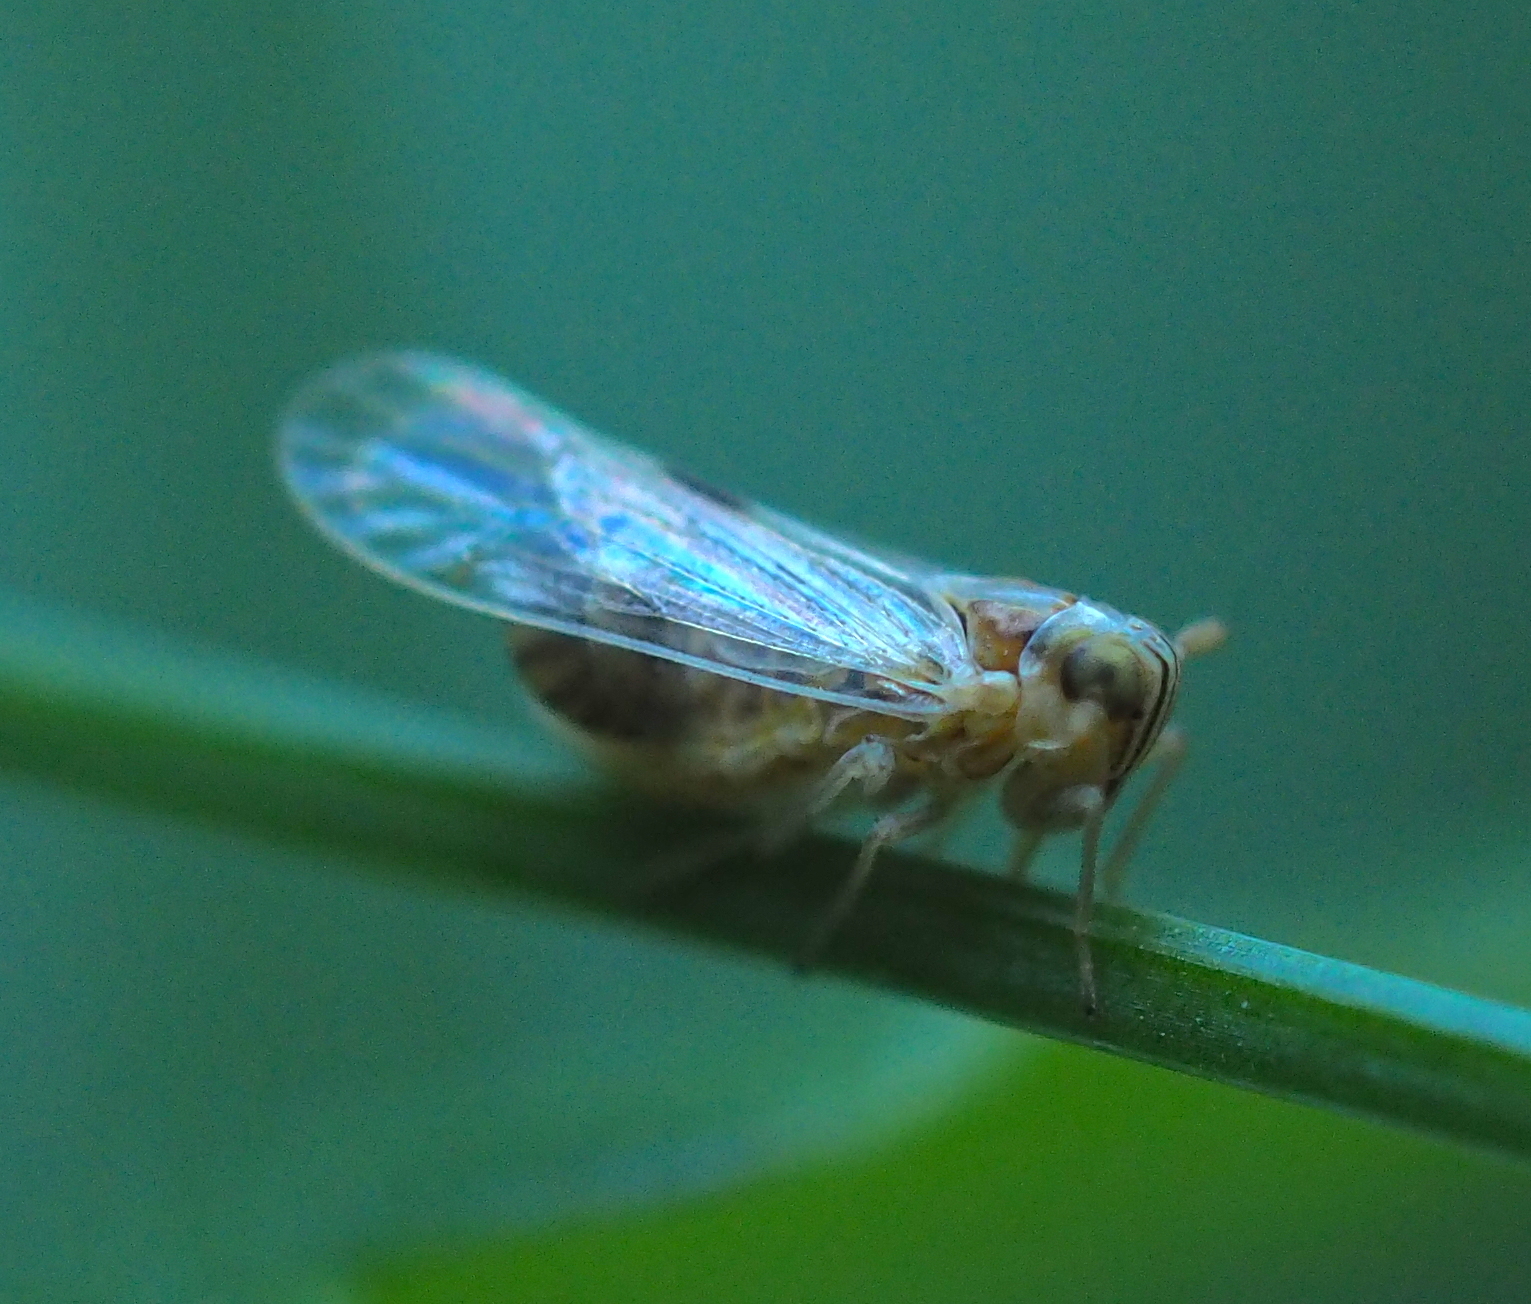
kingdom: Animalia
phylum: Arthropoda
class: Insecta
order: Hemiptera
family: Delphacidae
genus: Laodelphax
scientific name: Laodelphax striatellus
